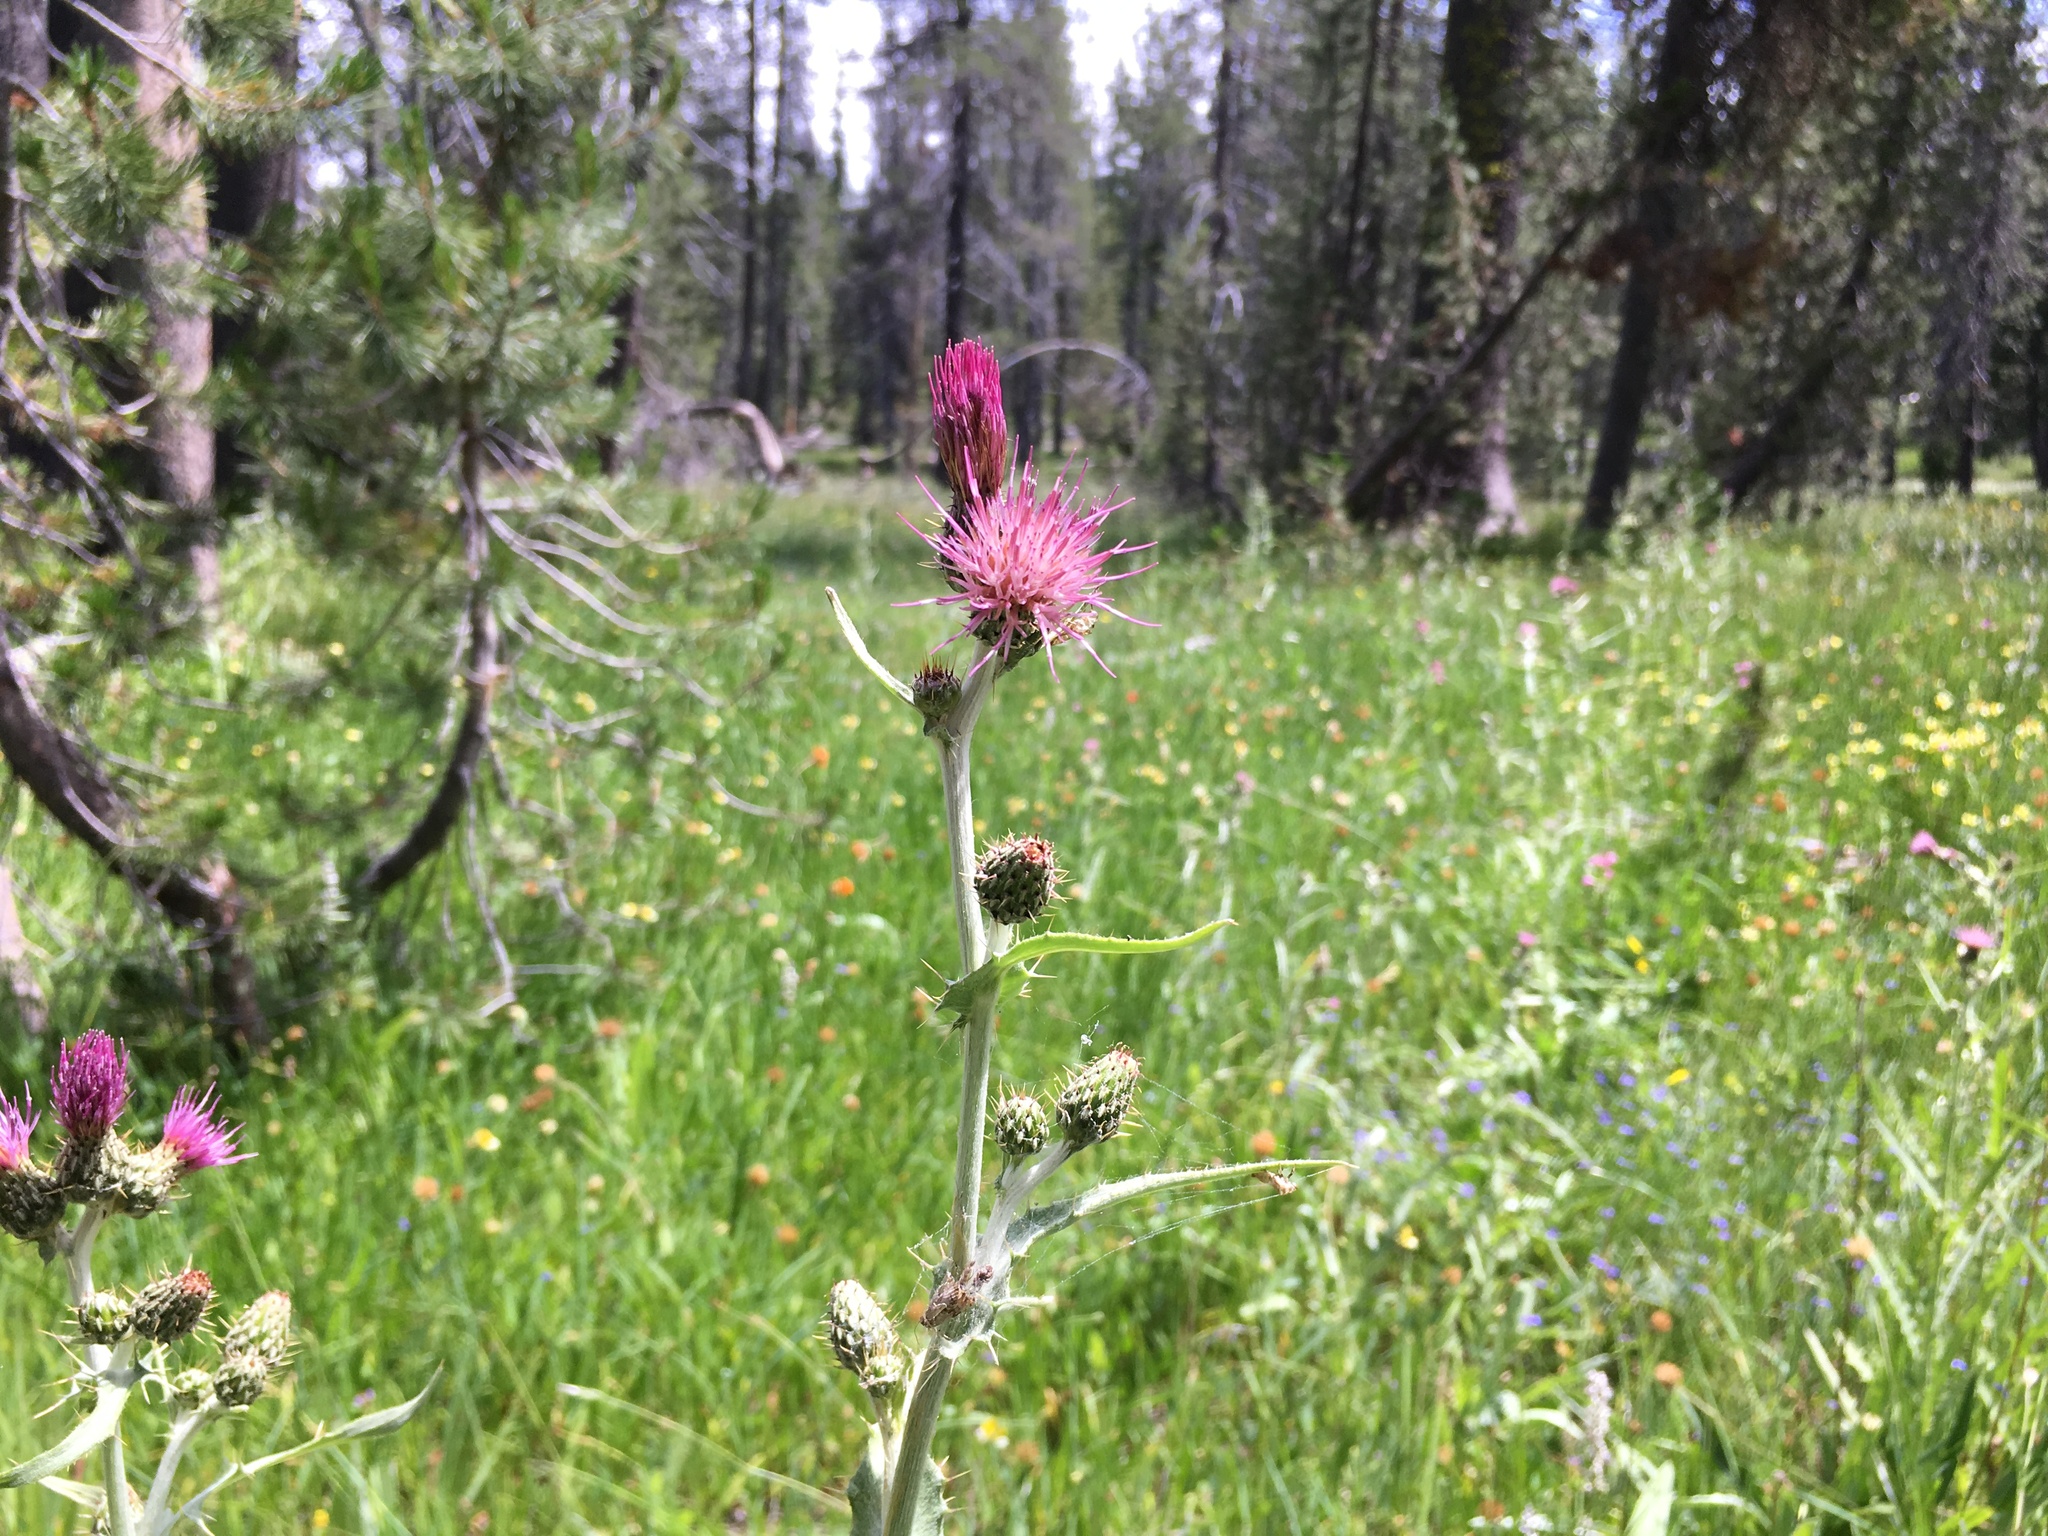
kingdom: Plantae
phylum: Tracheophyta
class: Magnoliopsida
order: Asterales
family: Asteraceae
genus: Cirsium
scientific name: Cirsium douglasii
